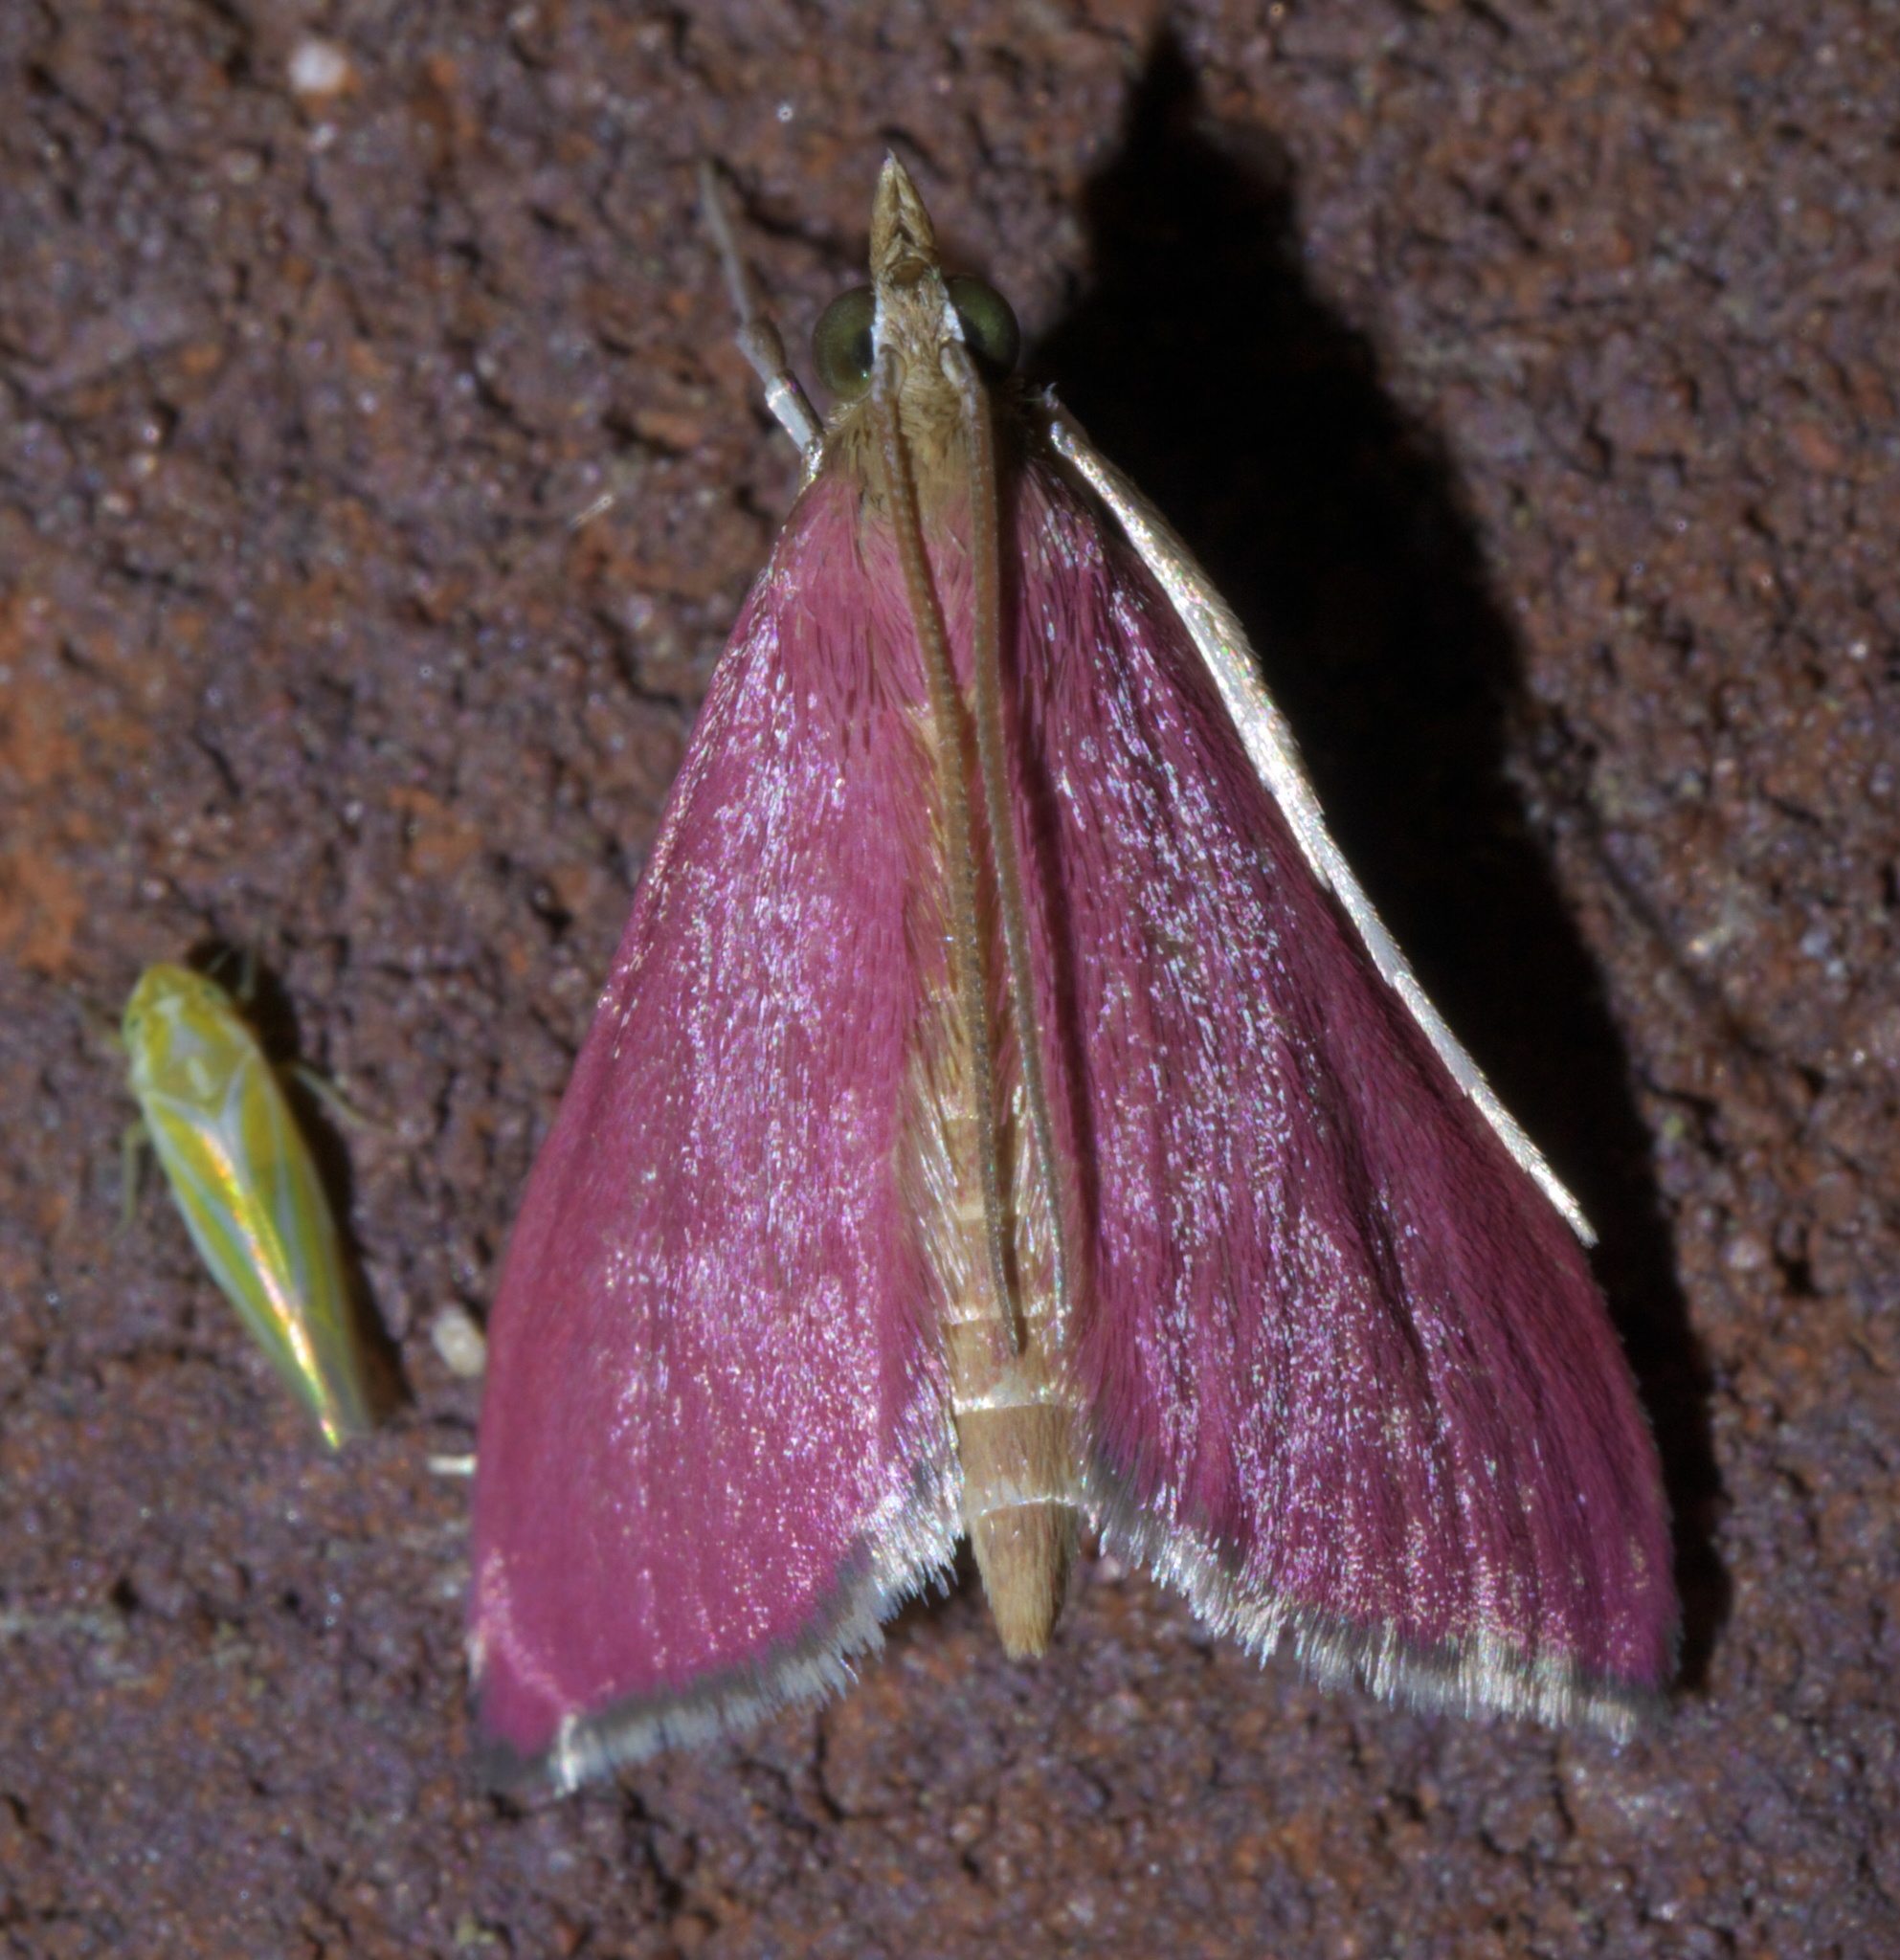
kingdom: Animalia
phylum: Arthropoda
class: Insecta
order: Lepidoptera
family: Crambidae
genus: Pyrausta
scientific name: Pyrausta inornatalis
